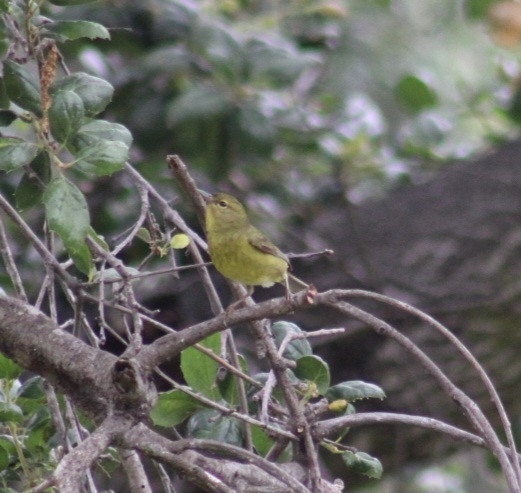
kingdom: Animalia
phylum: Chordata
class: Aves
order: Passeriformes
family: Parulidae
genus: Leiothlypis
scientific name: Leiothlypis celata
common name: Orange-crowned warbler
